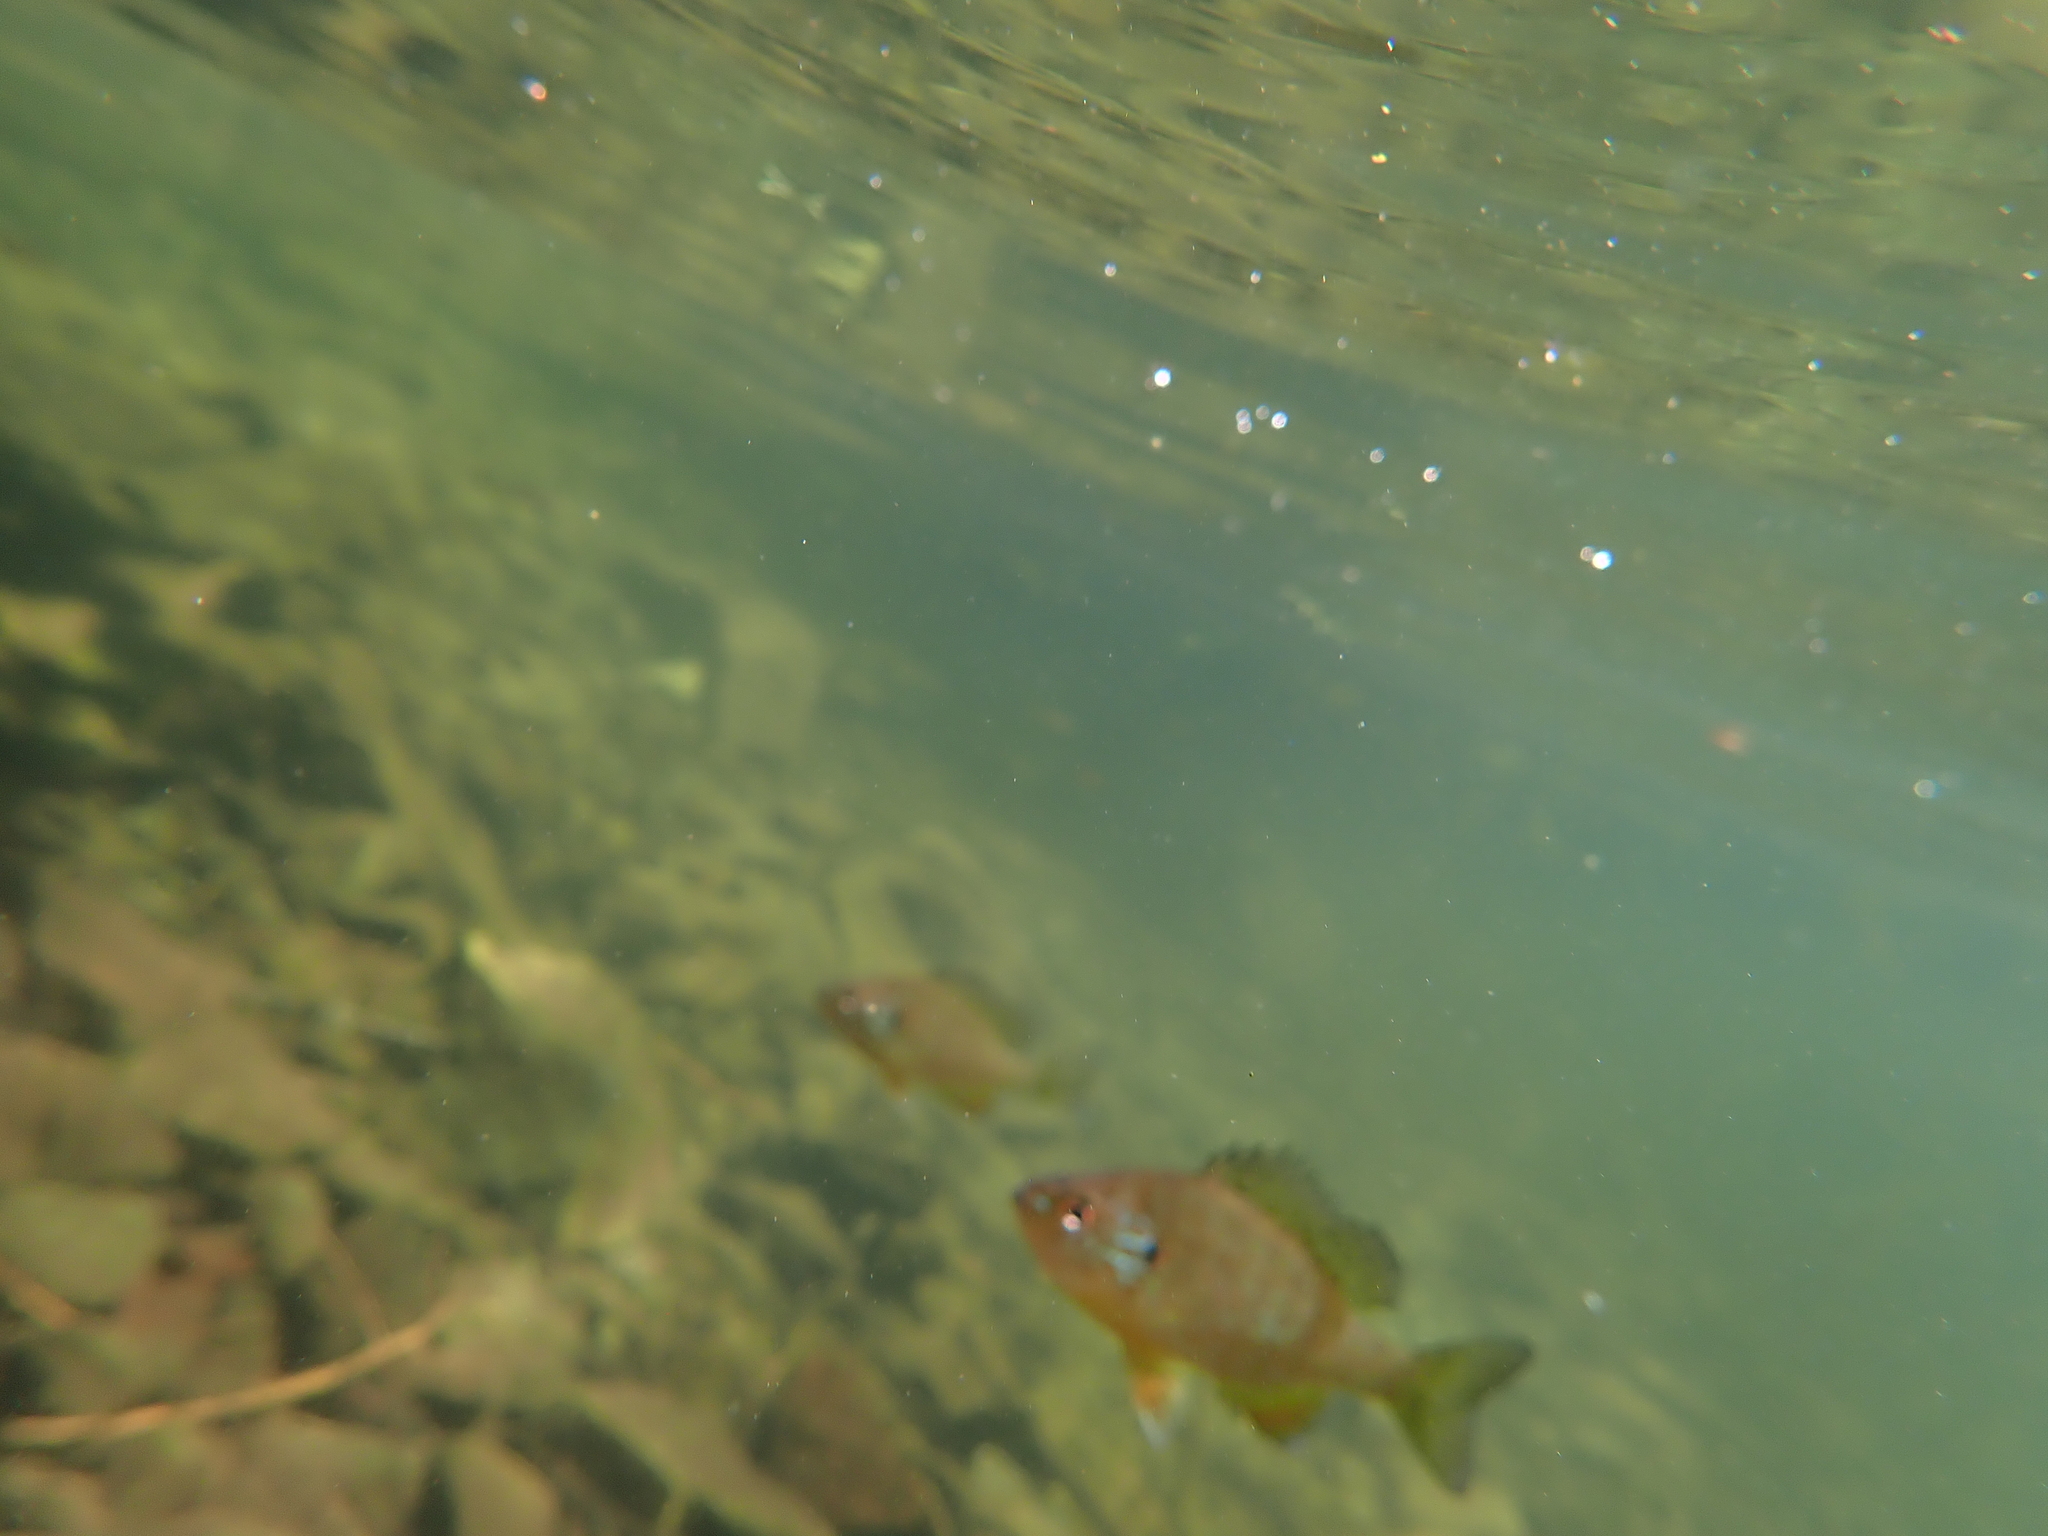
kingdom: Animalia
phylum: Chordata
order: Perciformes
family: Centrarchidae
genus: Lepomis
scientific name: Lepomis gibbosus
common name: Pumpkinseed
